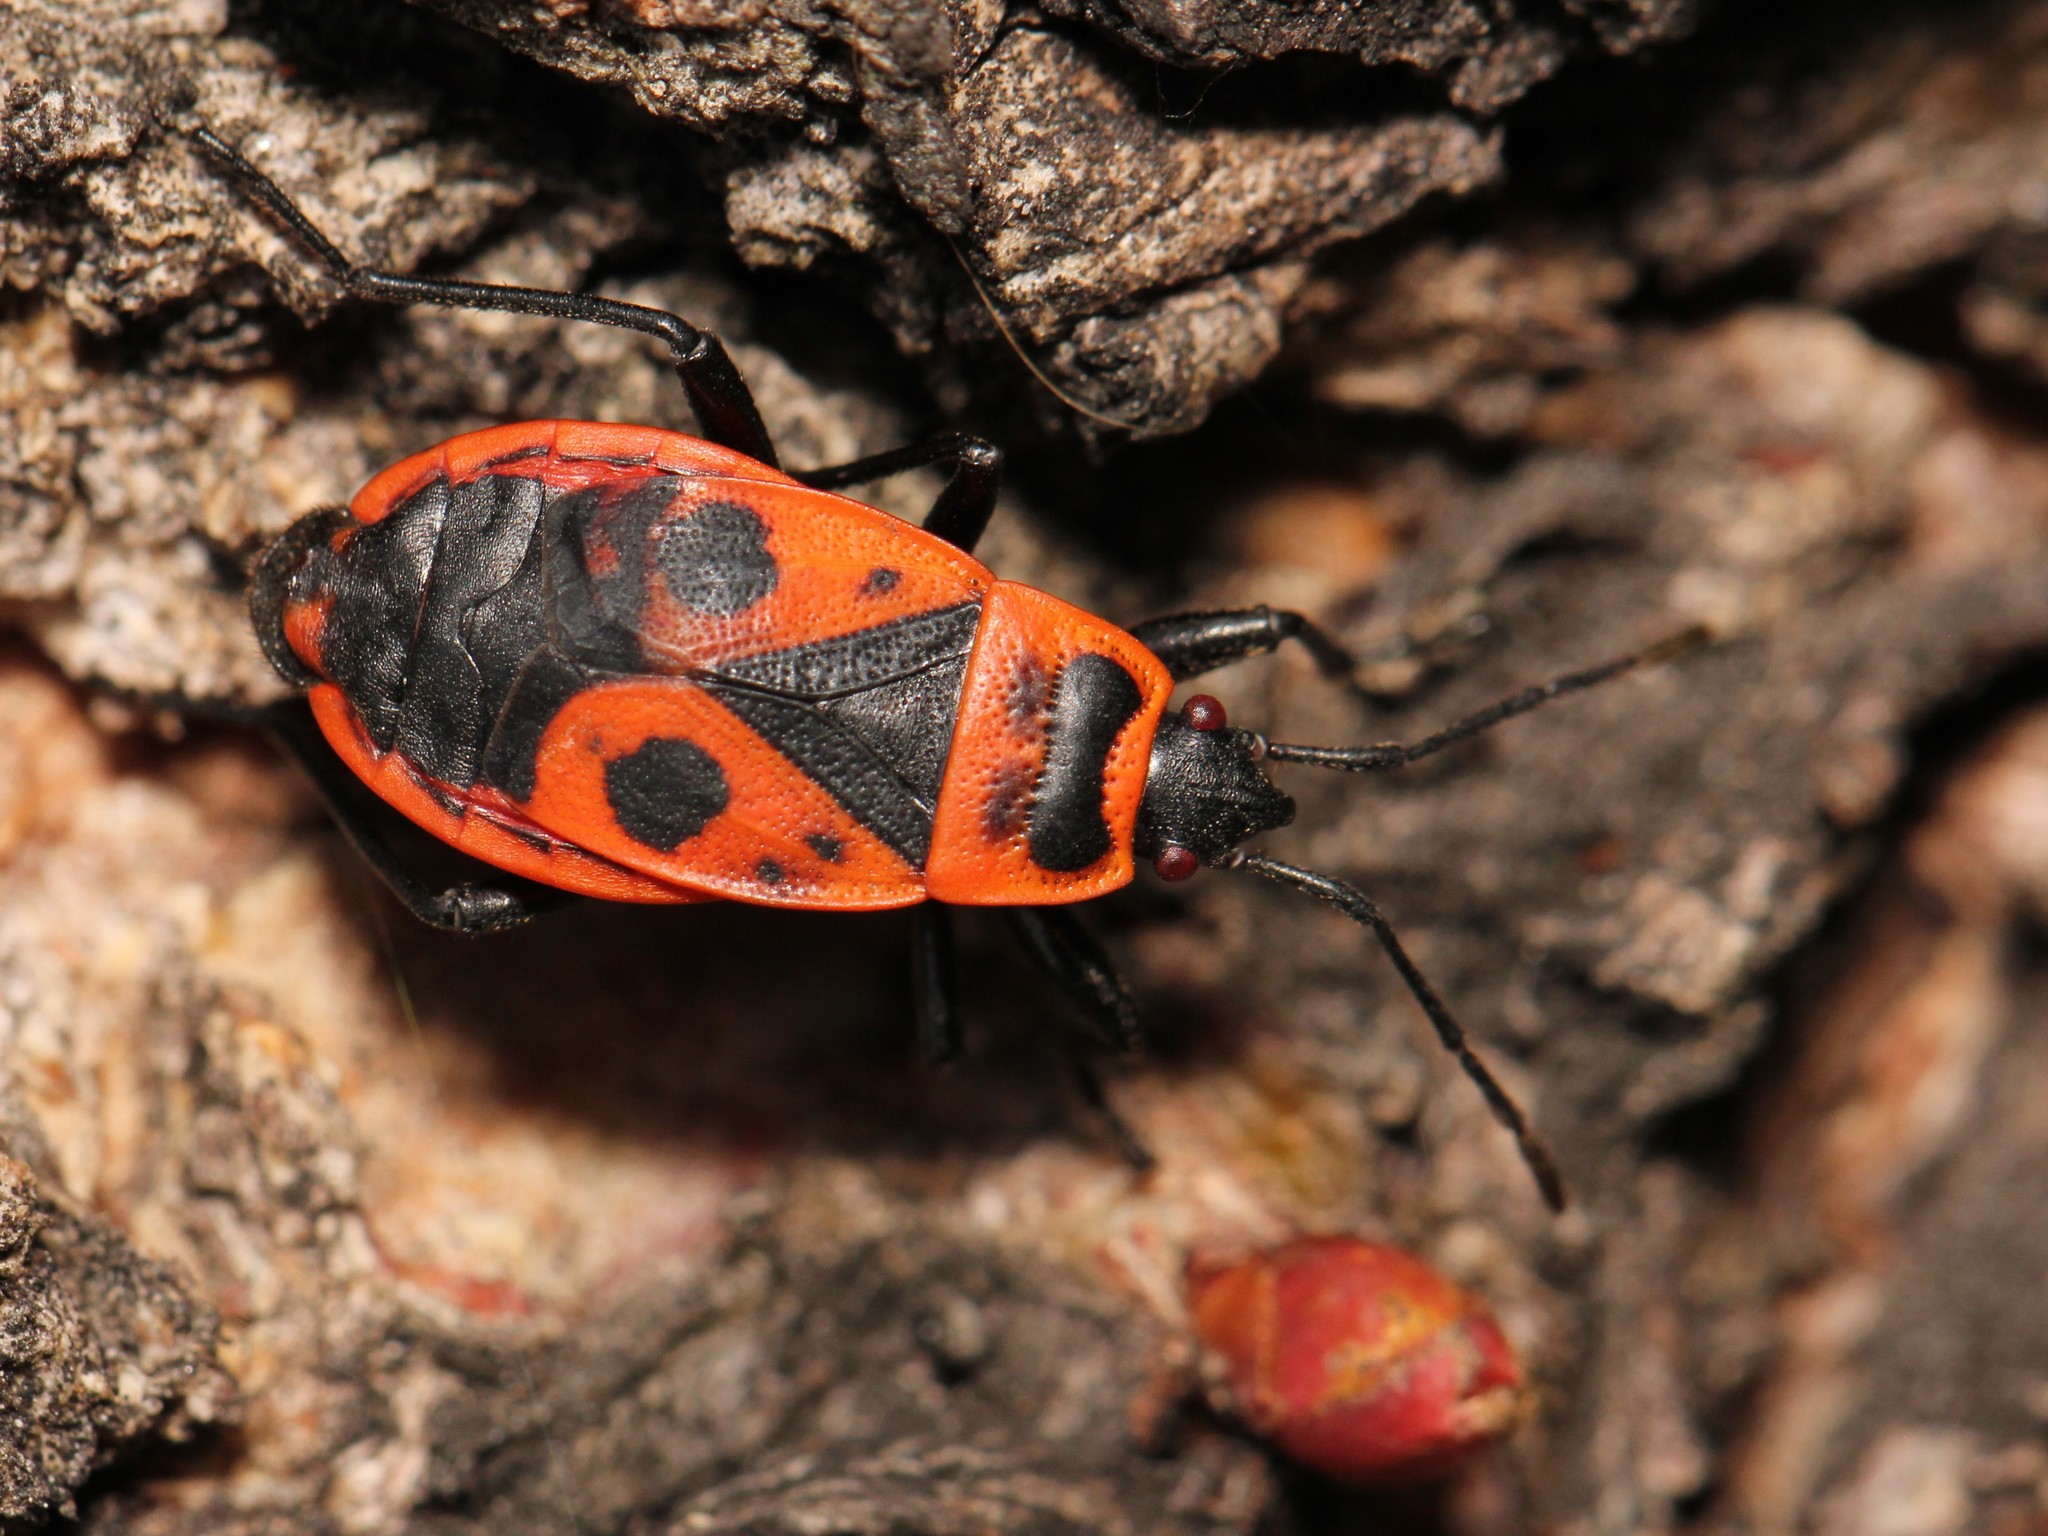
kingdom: Animalia
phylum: Arthropoda
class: Insecta
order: Hemiptera
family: Pyrrhocoridae
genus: Pyrrhocoris
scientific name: Pyrrhocoris apterus
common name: Firebug
